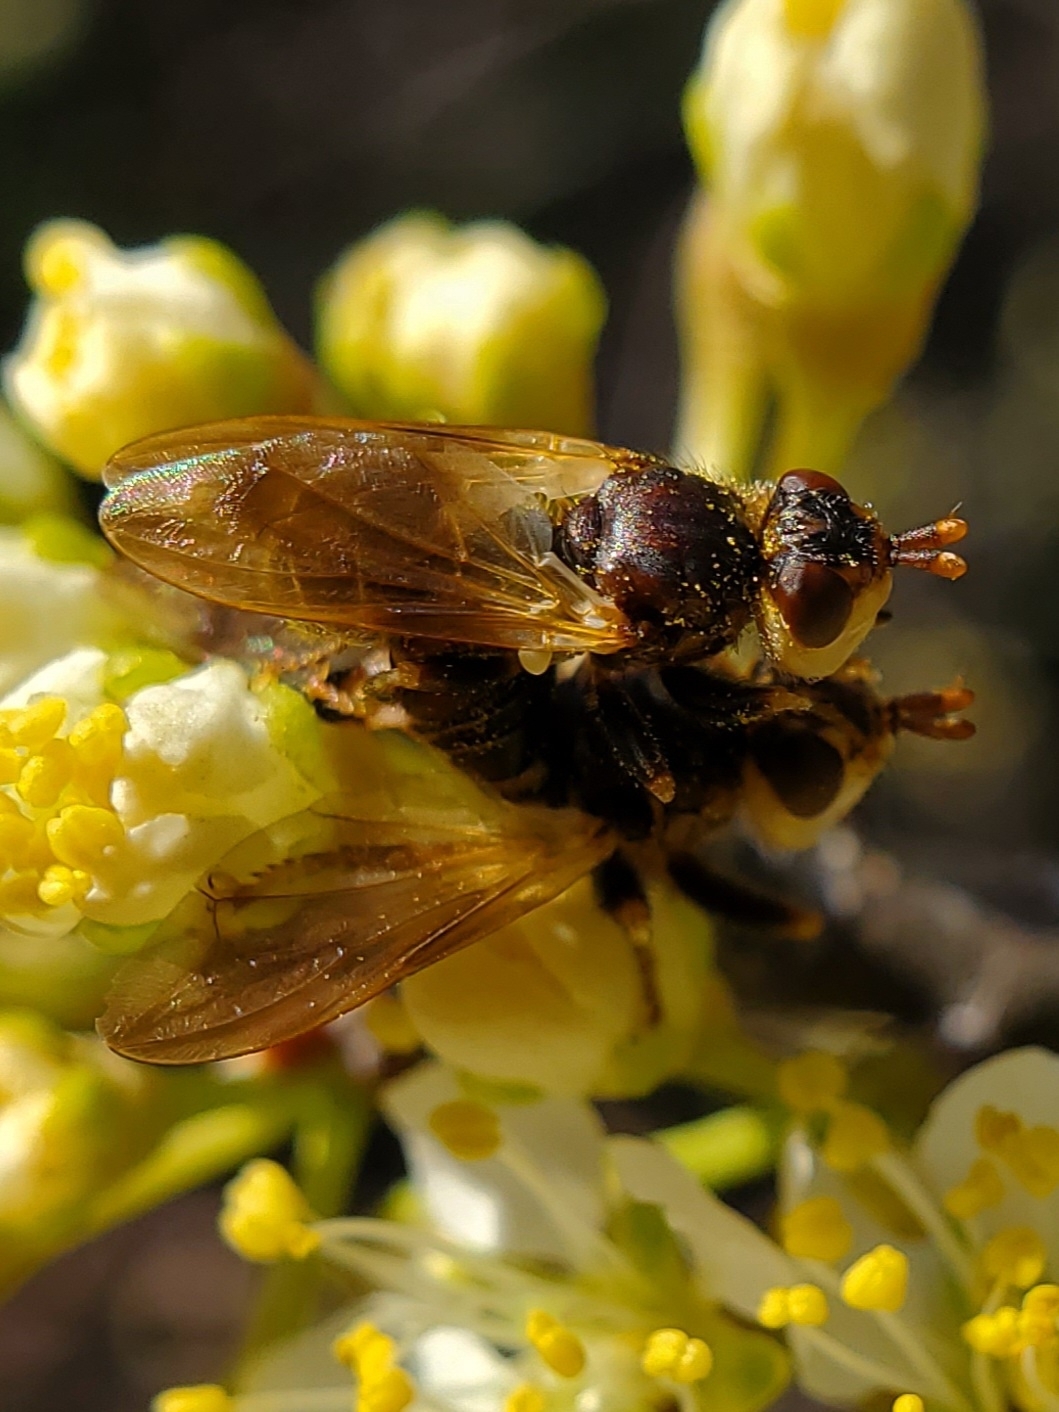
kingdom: Animalia
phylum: Arthropoda
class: Insecta
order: Diptera
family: Conopidae
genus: Myopa
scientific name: Myopa vesiculosa
